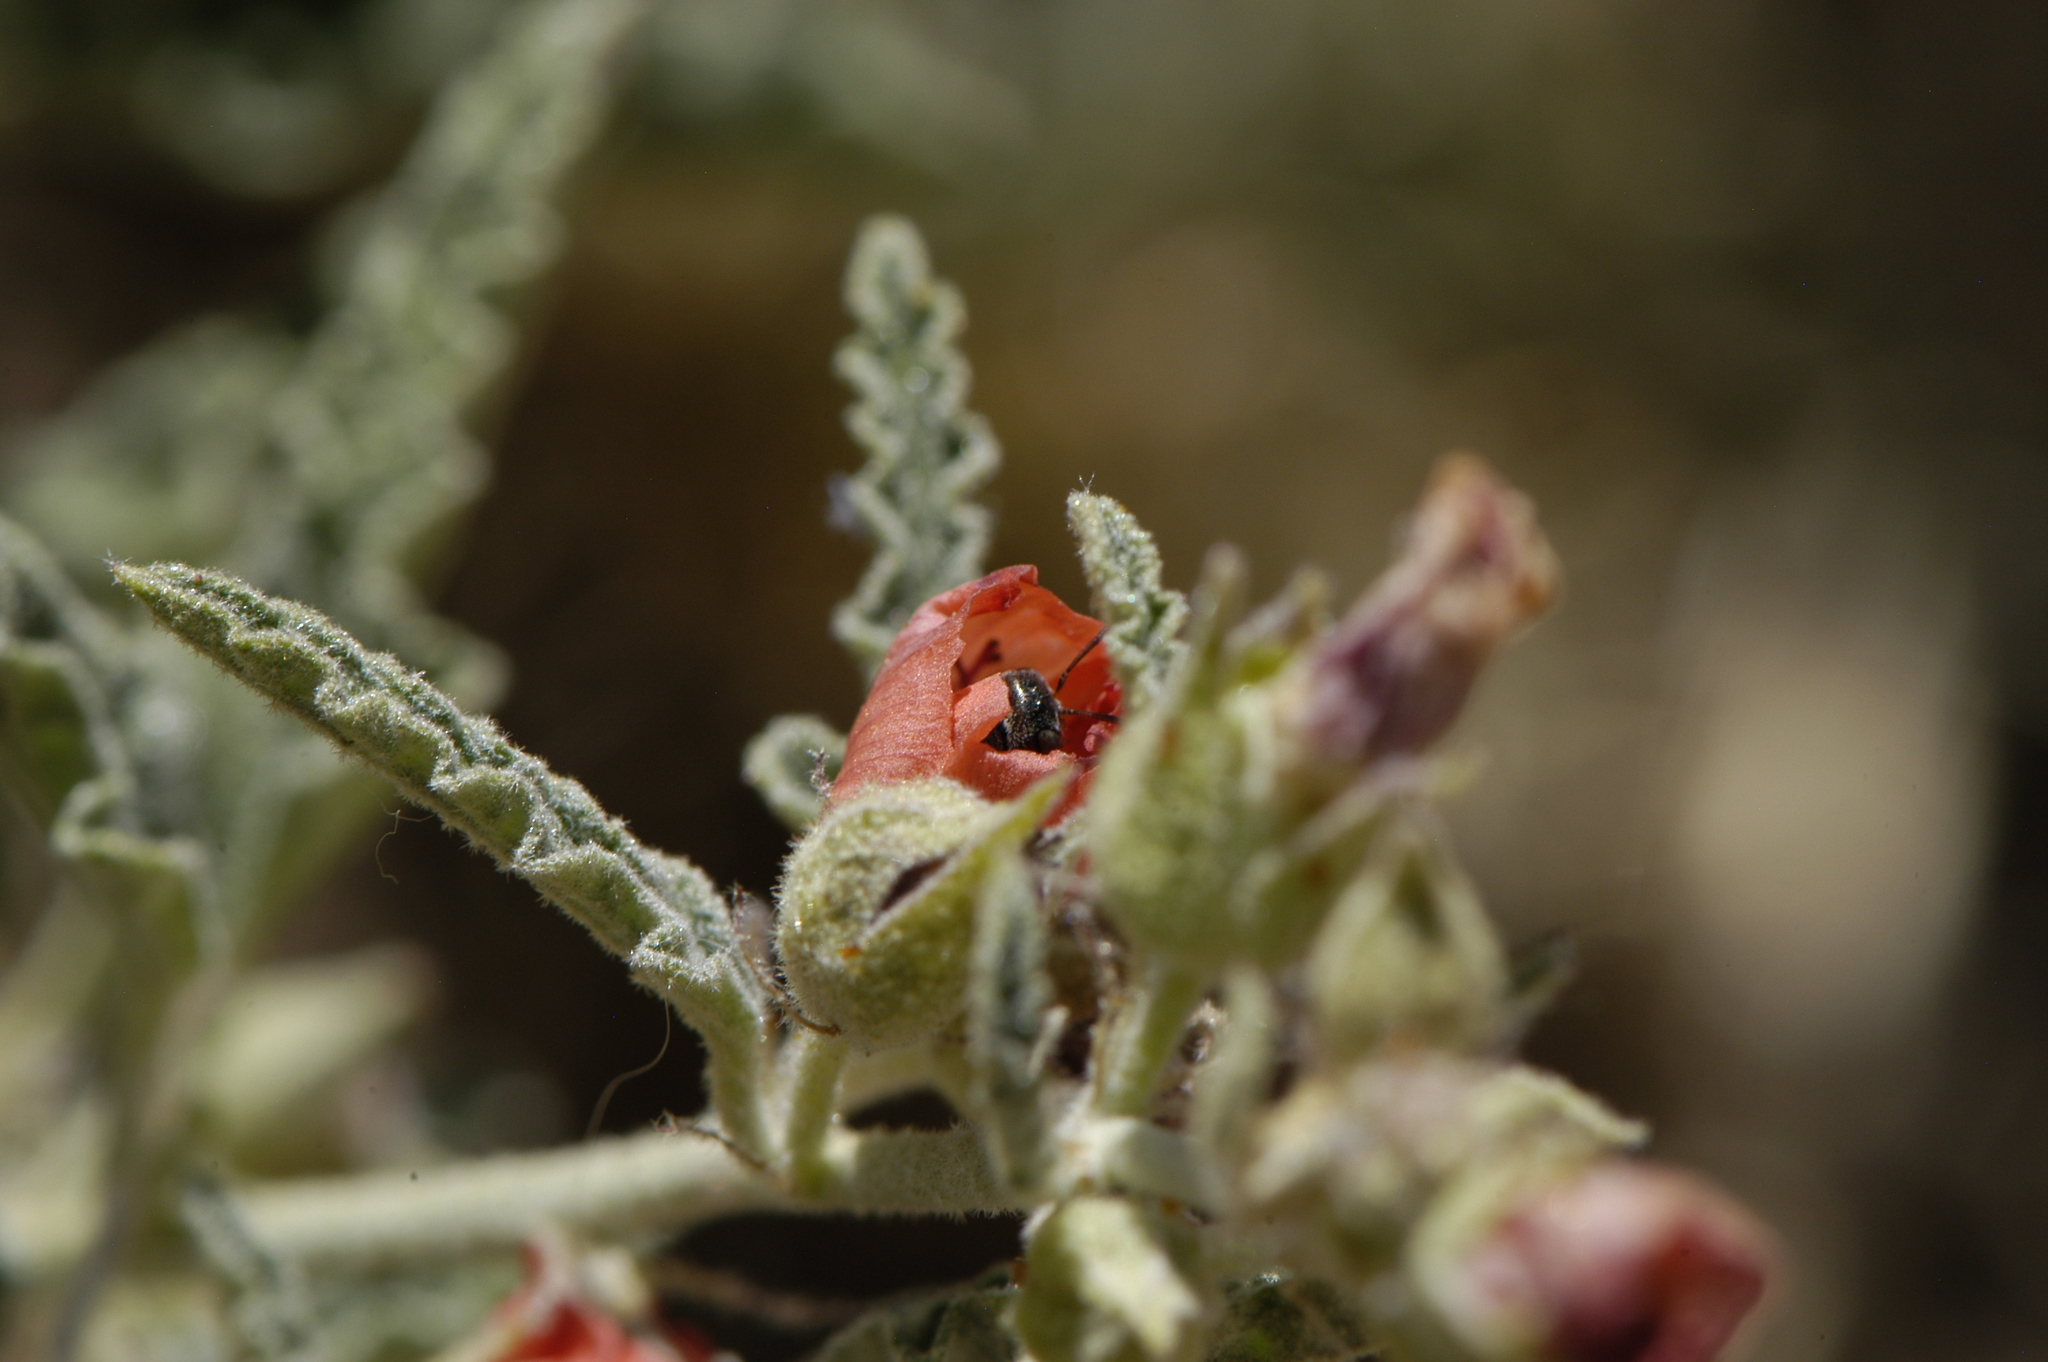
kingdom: Animalia
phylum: Arthropoda
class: Insecta
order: Hymenoptera
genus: Macroteropsis
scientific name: Macroteropsis
